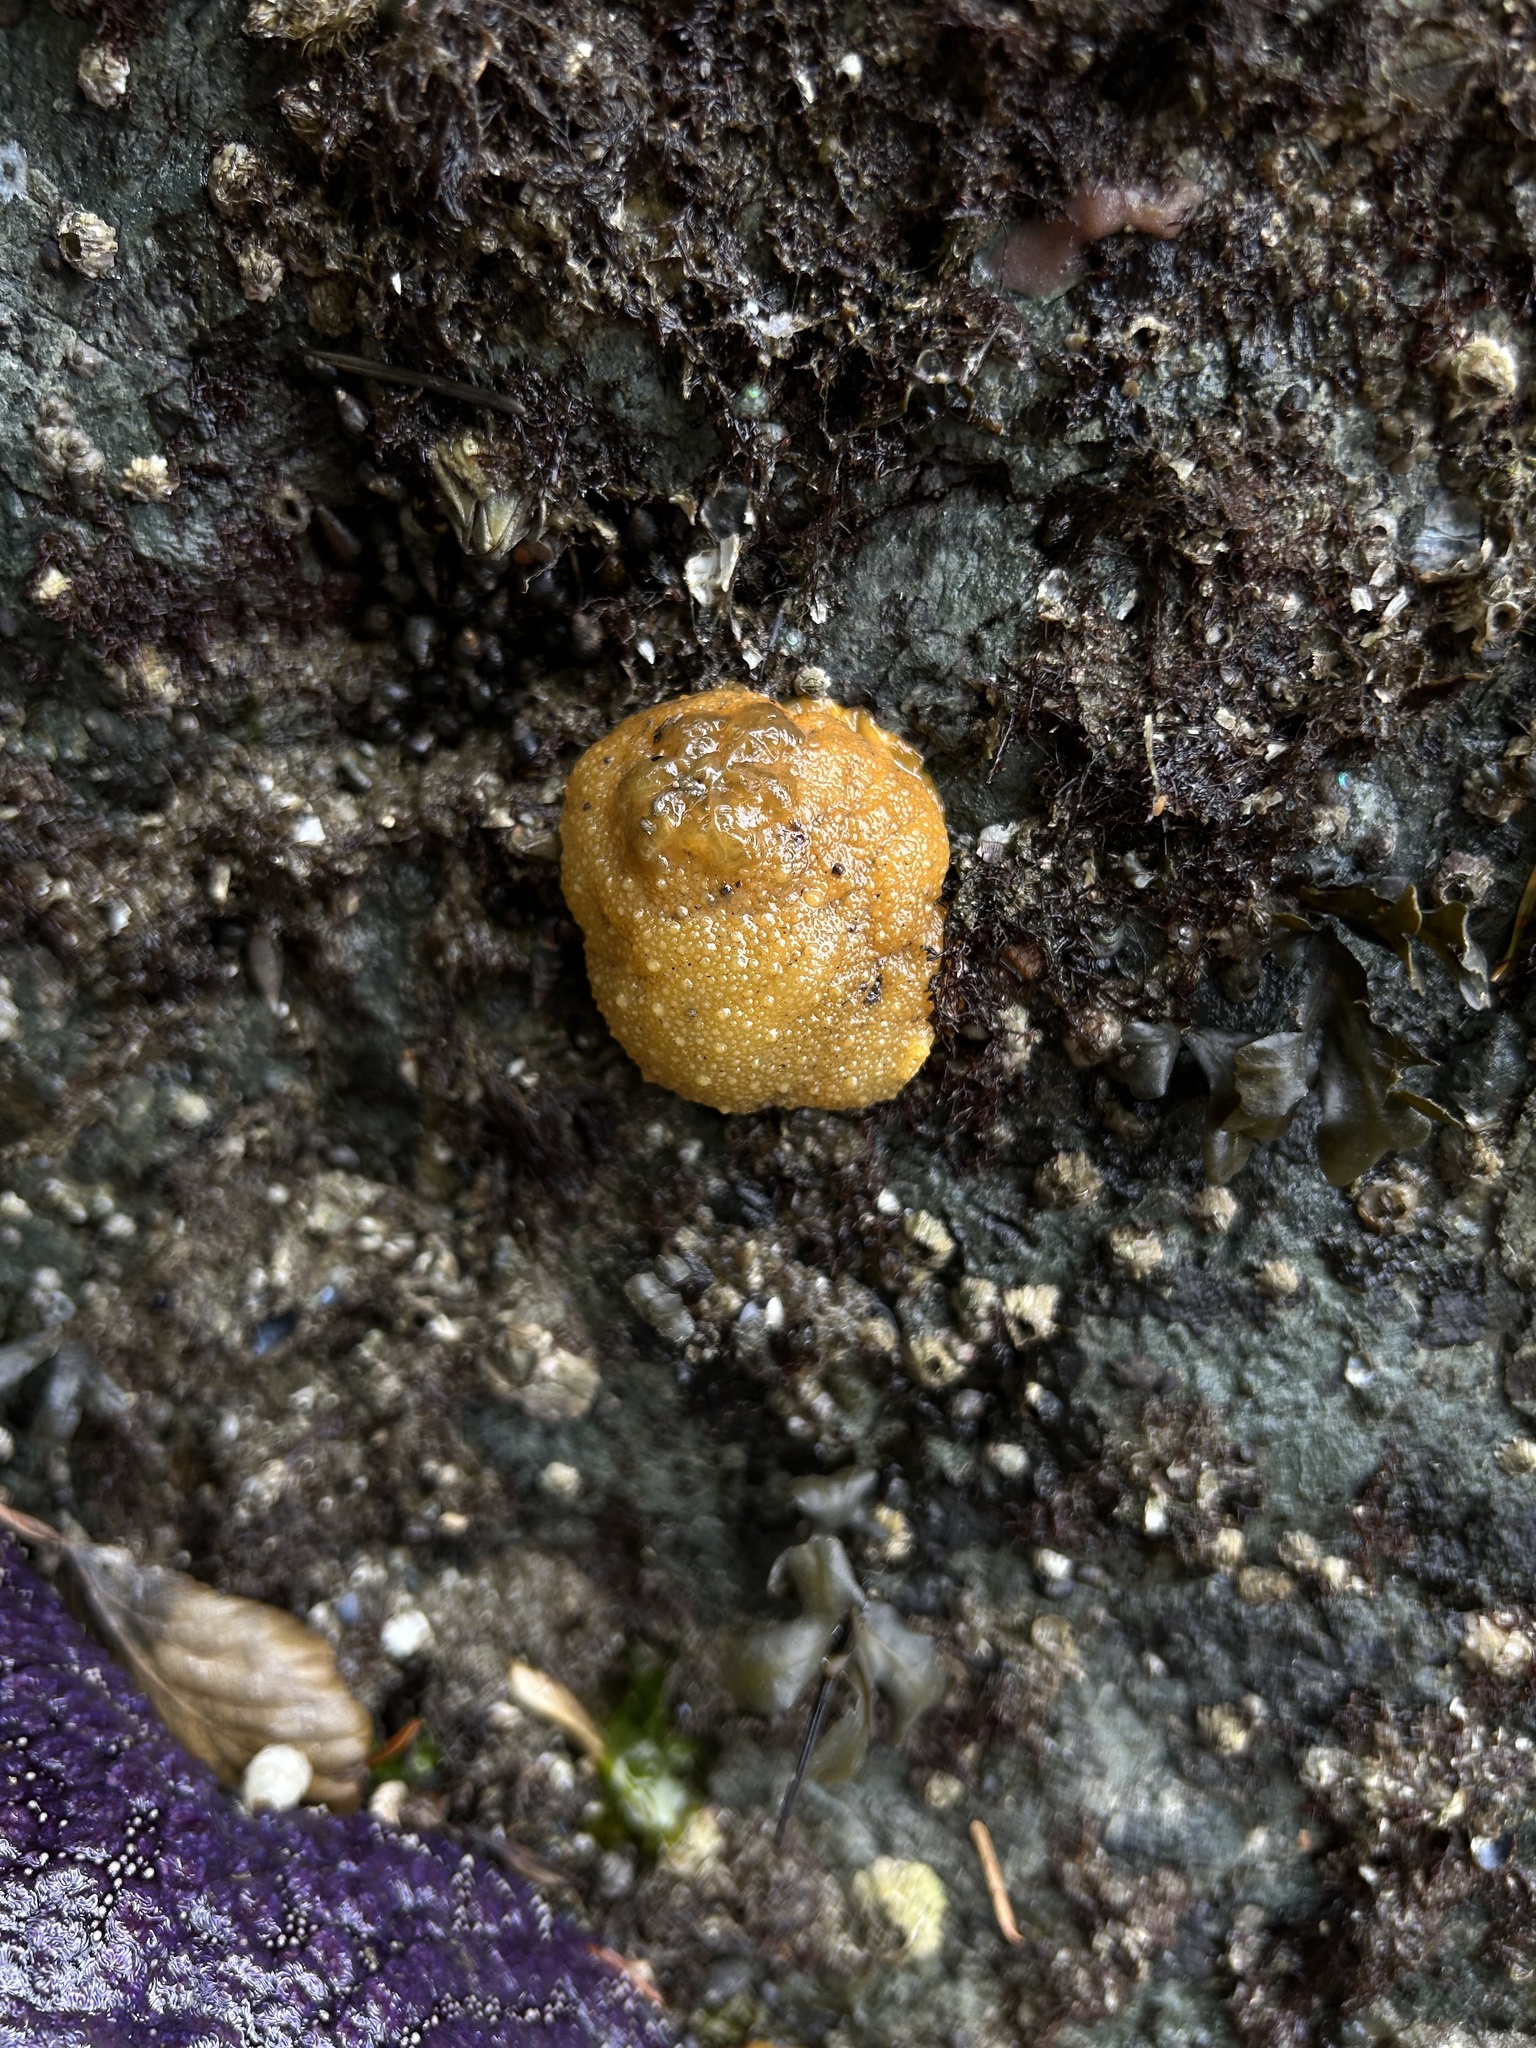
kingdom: Animalia
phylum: Mollusca
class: Gastropoda
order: Nudibranchia
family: Dorididae
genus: Doris
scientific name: Doris montereyensis
